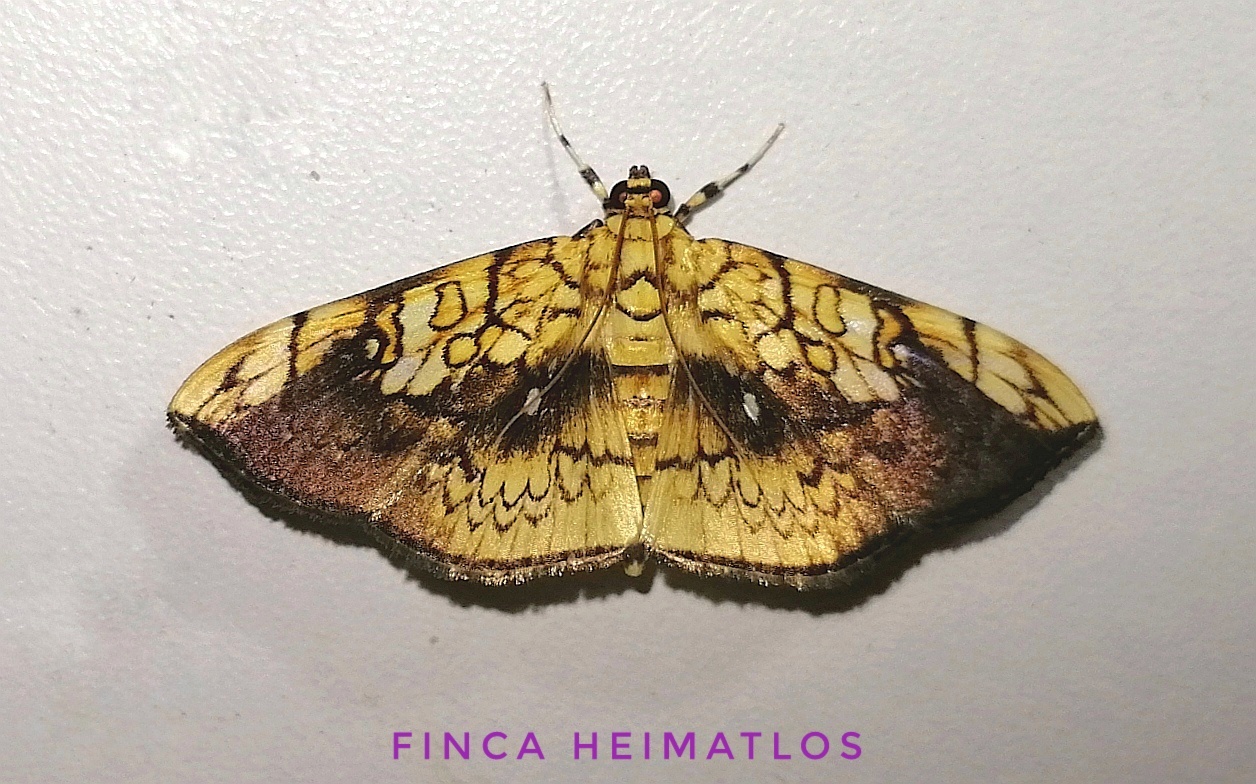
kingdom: Animalia
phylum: Arthropoda
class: Insecta
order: Lepidoptera
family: Crambidae
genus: Pantographa
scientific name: Pantographa scripturalis
